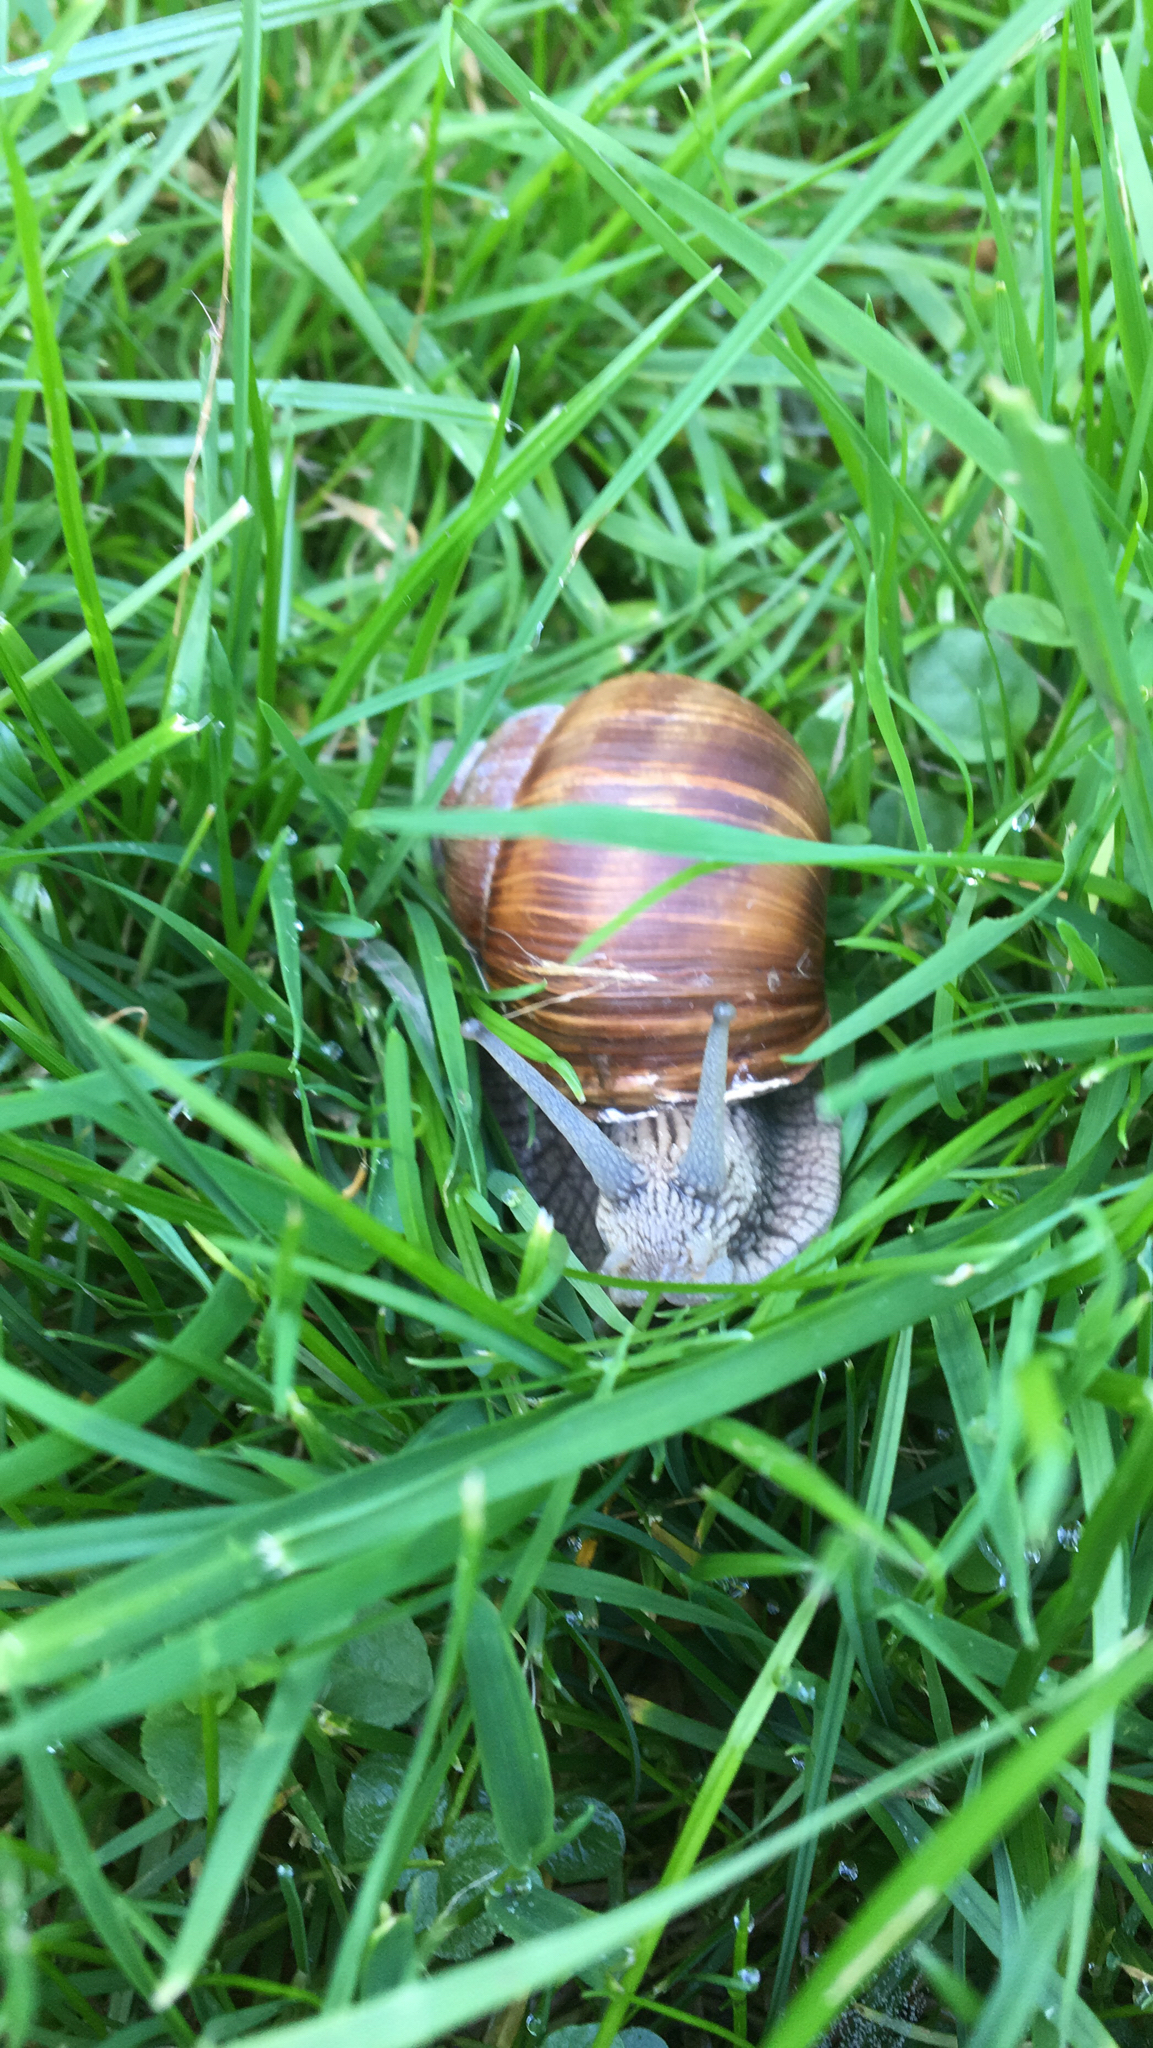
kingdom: Animalia
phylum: Mollusca
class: Gastropoda
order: Stylommatophora
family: Helicidae
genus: Helix
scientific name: Helix pomatia
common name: Roman snail
